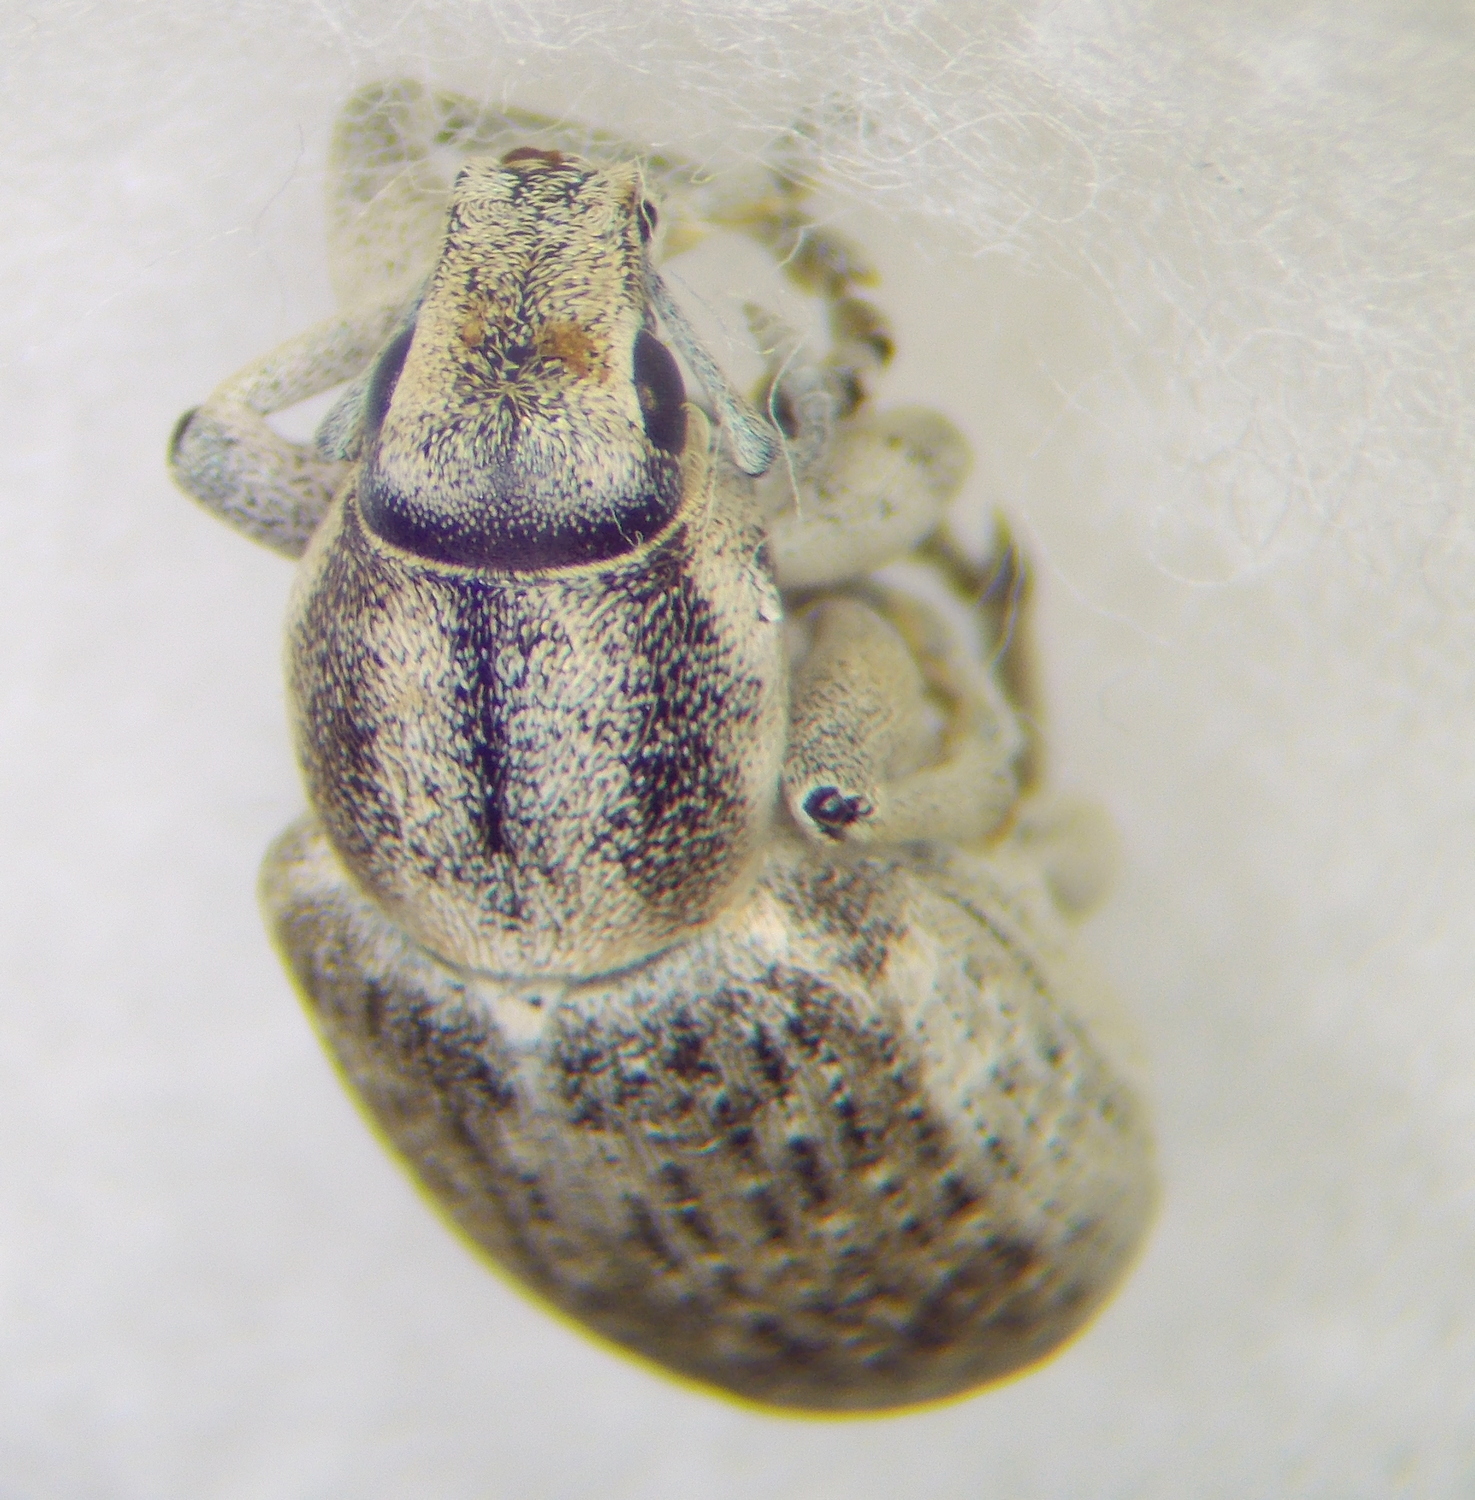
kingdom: Animalia
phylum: Arthropoda
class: Insecta
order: Coleoptera
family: Curculionidae
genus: Megamecus
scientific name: Megamecus variegatus
